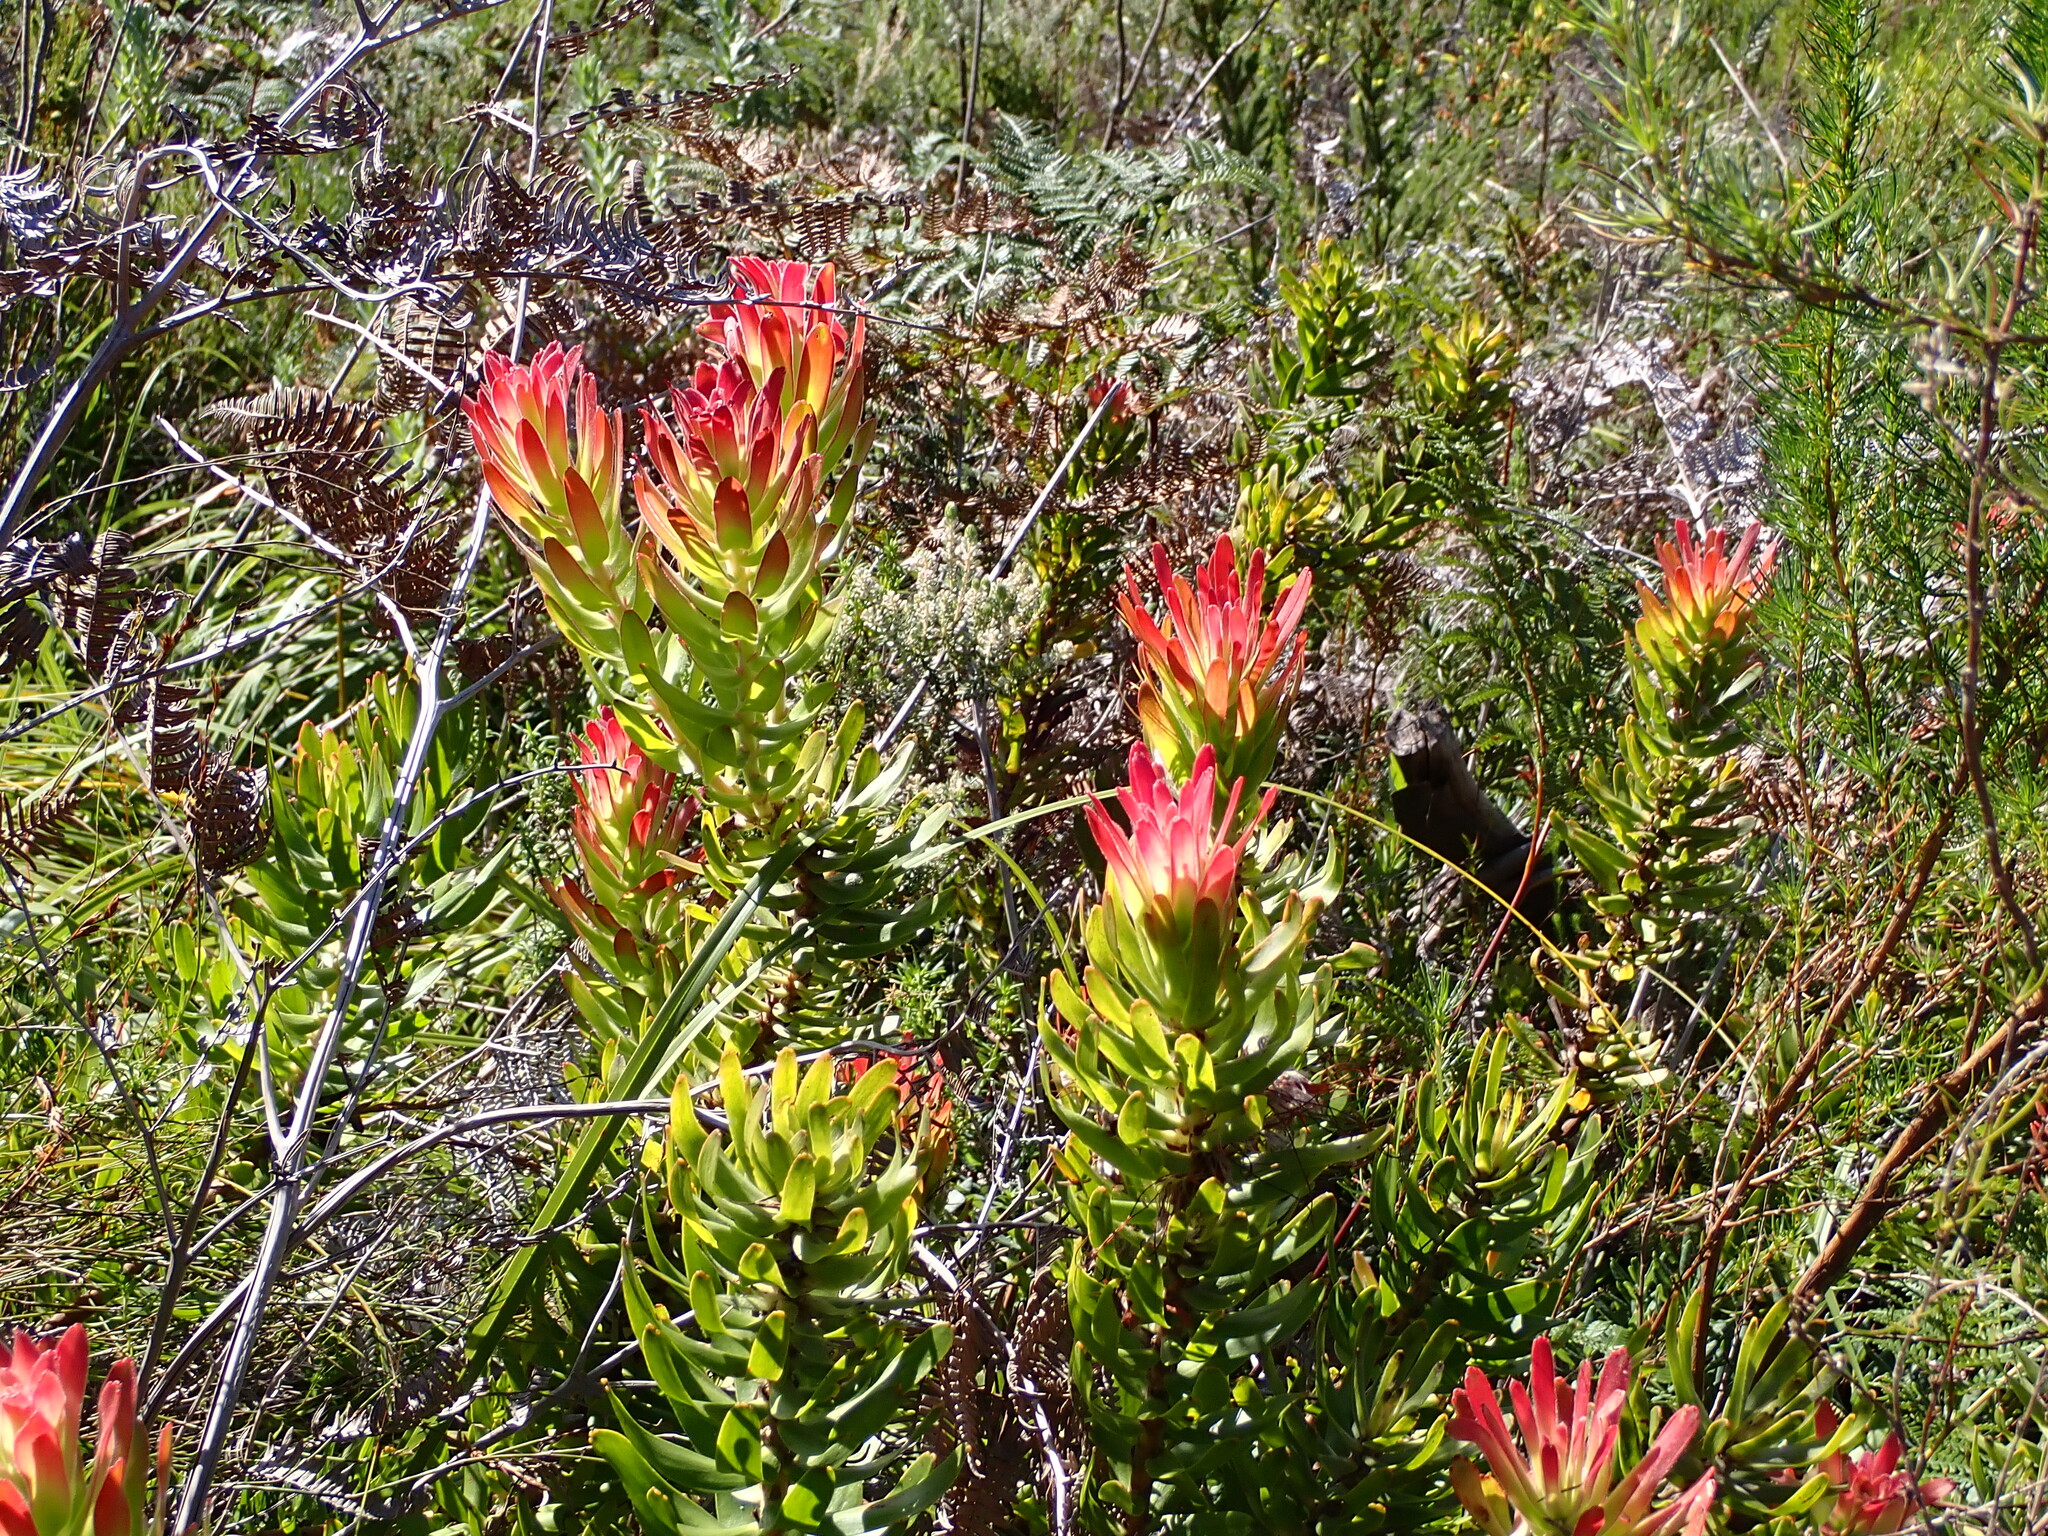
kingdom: Plantae
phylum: Tracheophyta
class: Magnoliopsida
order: Proteales
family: Proteaceae
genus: Mimetes
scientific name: Mimetes cucullatus
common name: Common pagoda
